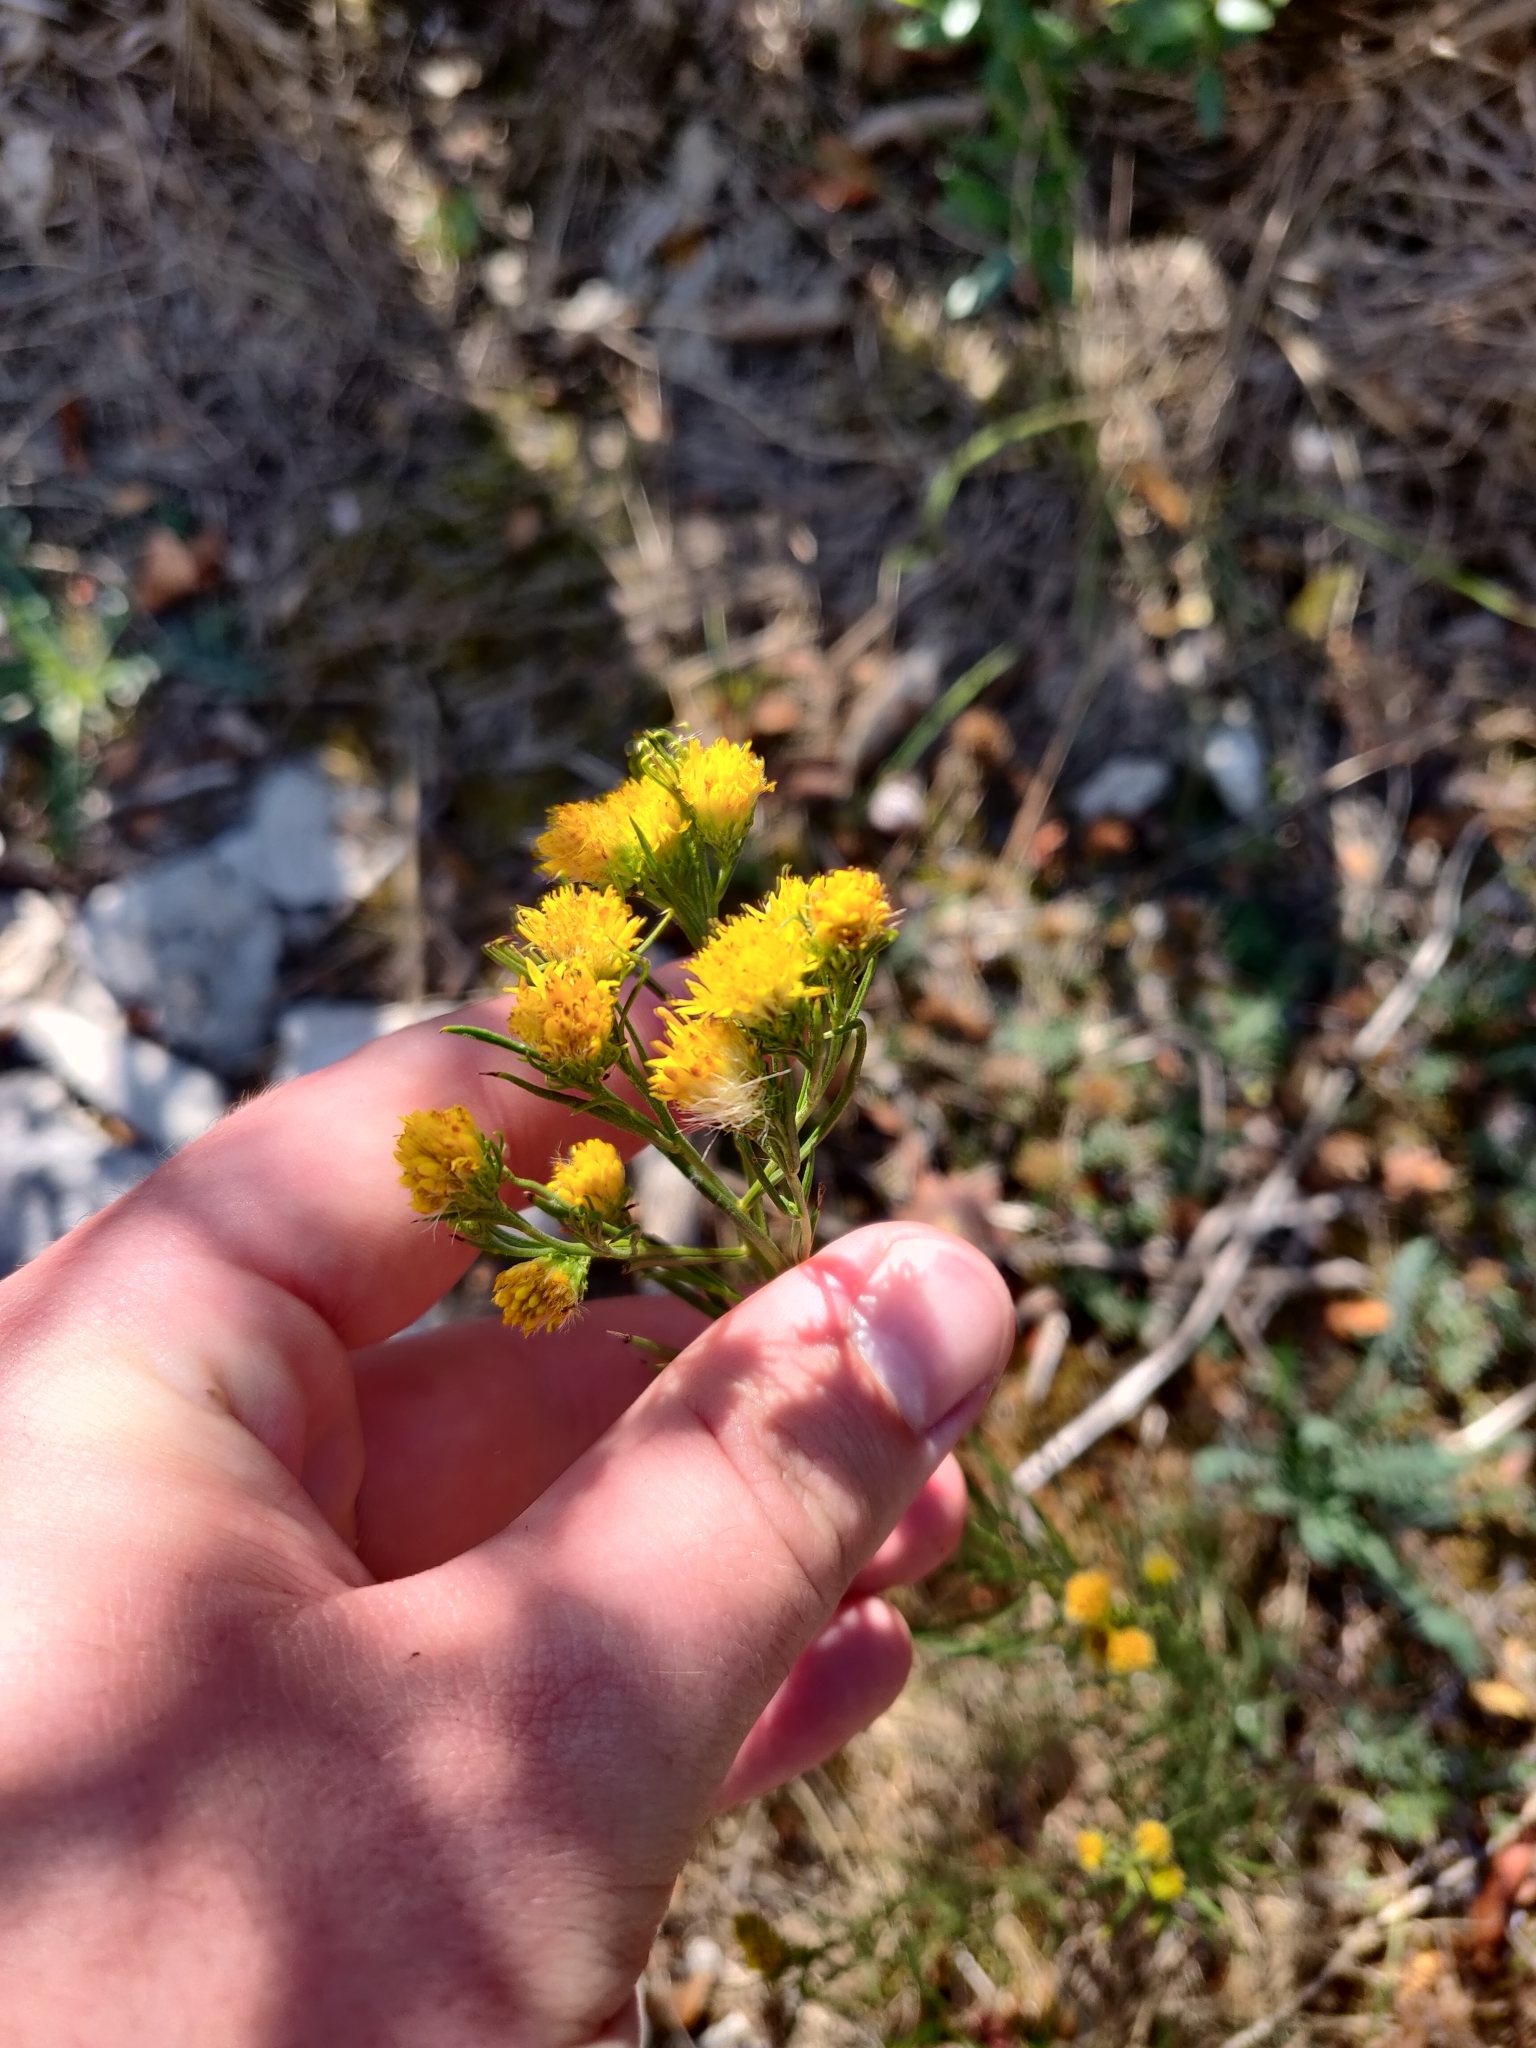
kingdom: Plantae
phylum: Tracheophyta
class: Magnoliopsida
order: Asterales
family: Asteraceae
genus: Galatella
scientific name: Galatella linosyris
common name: Goldilocks aster
